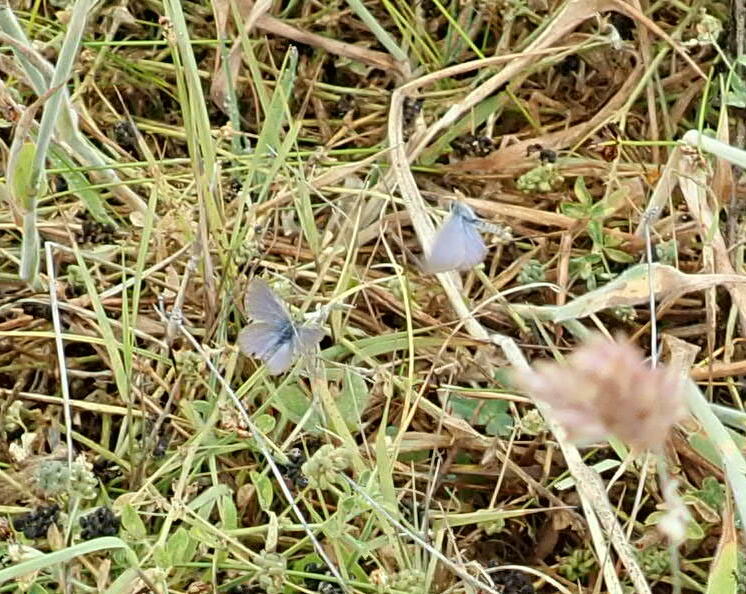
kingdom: Animalia
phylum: Arthropoda
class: Insecta
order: Lepidoptera
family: Lycaenidae
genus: Zizina
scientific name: Zizina labradus
